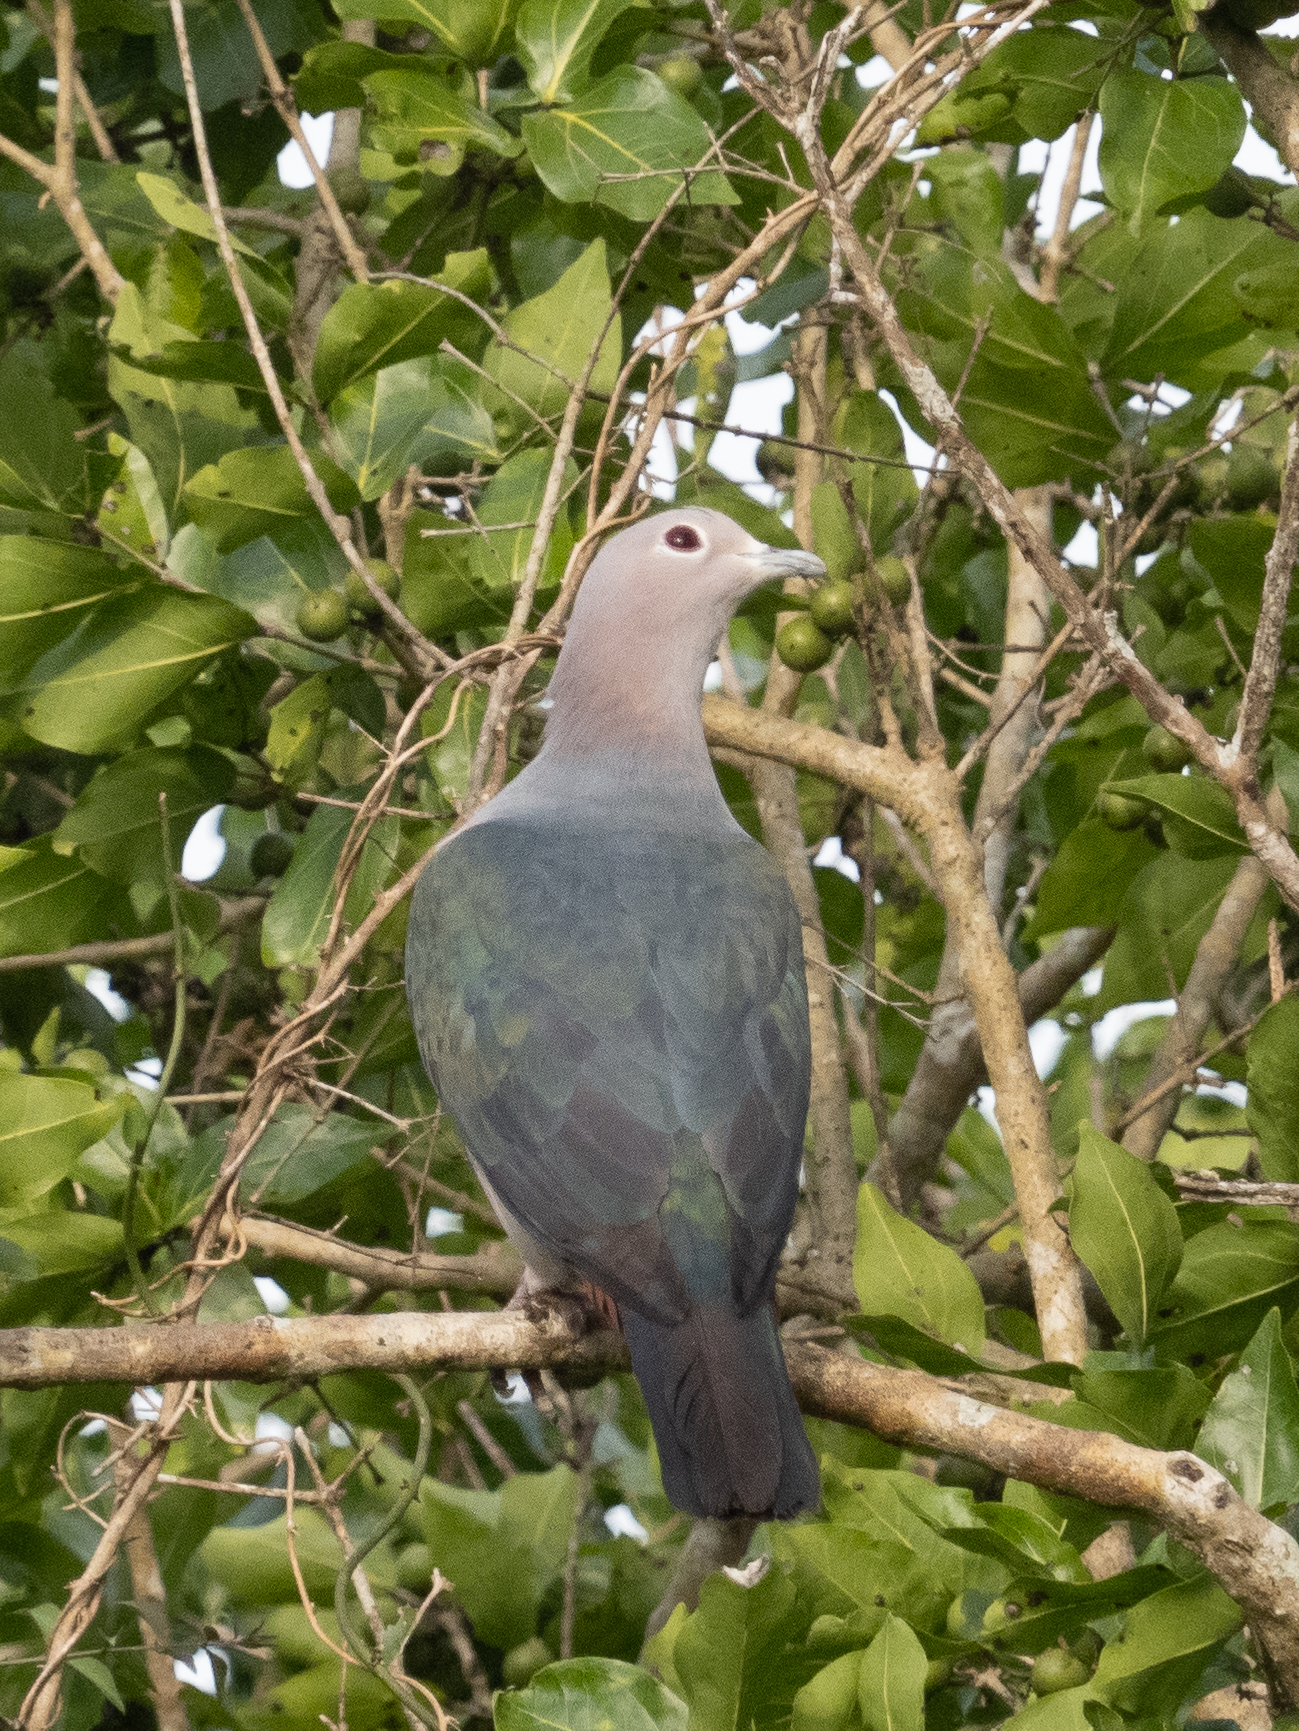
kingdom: Animalia
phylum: Chordata
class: Aves
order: Columbiformes
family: Columbidae
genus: Ducula
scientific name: Ducula aenea
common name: Green imperial pigeon
